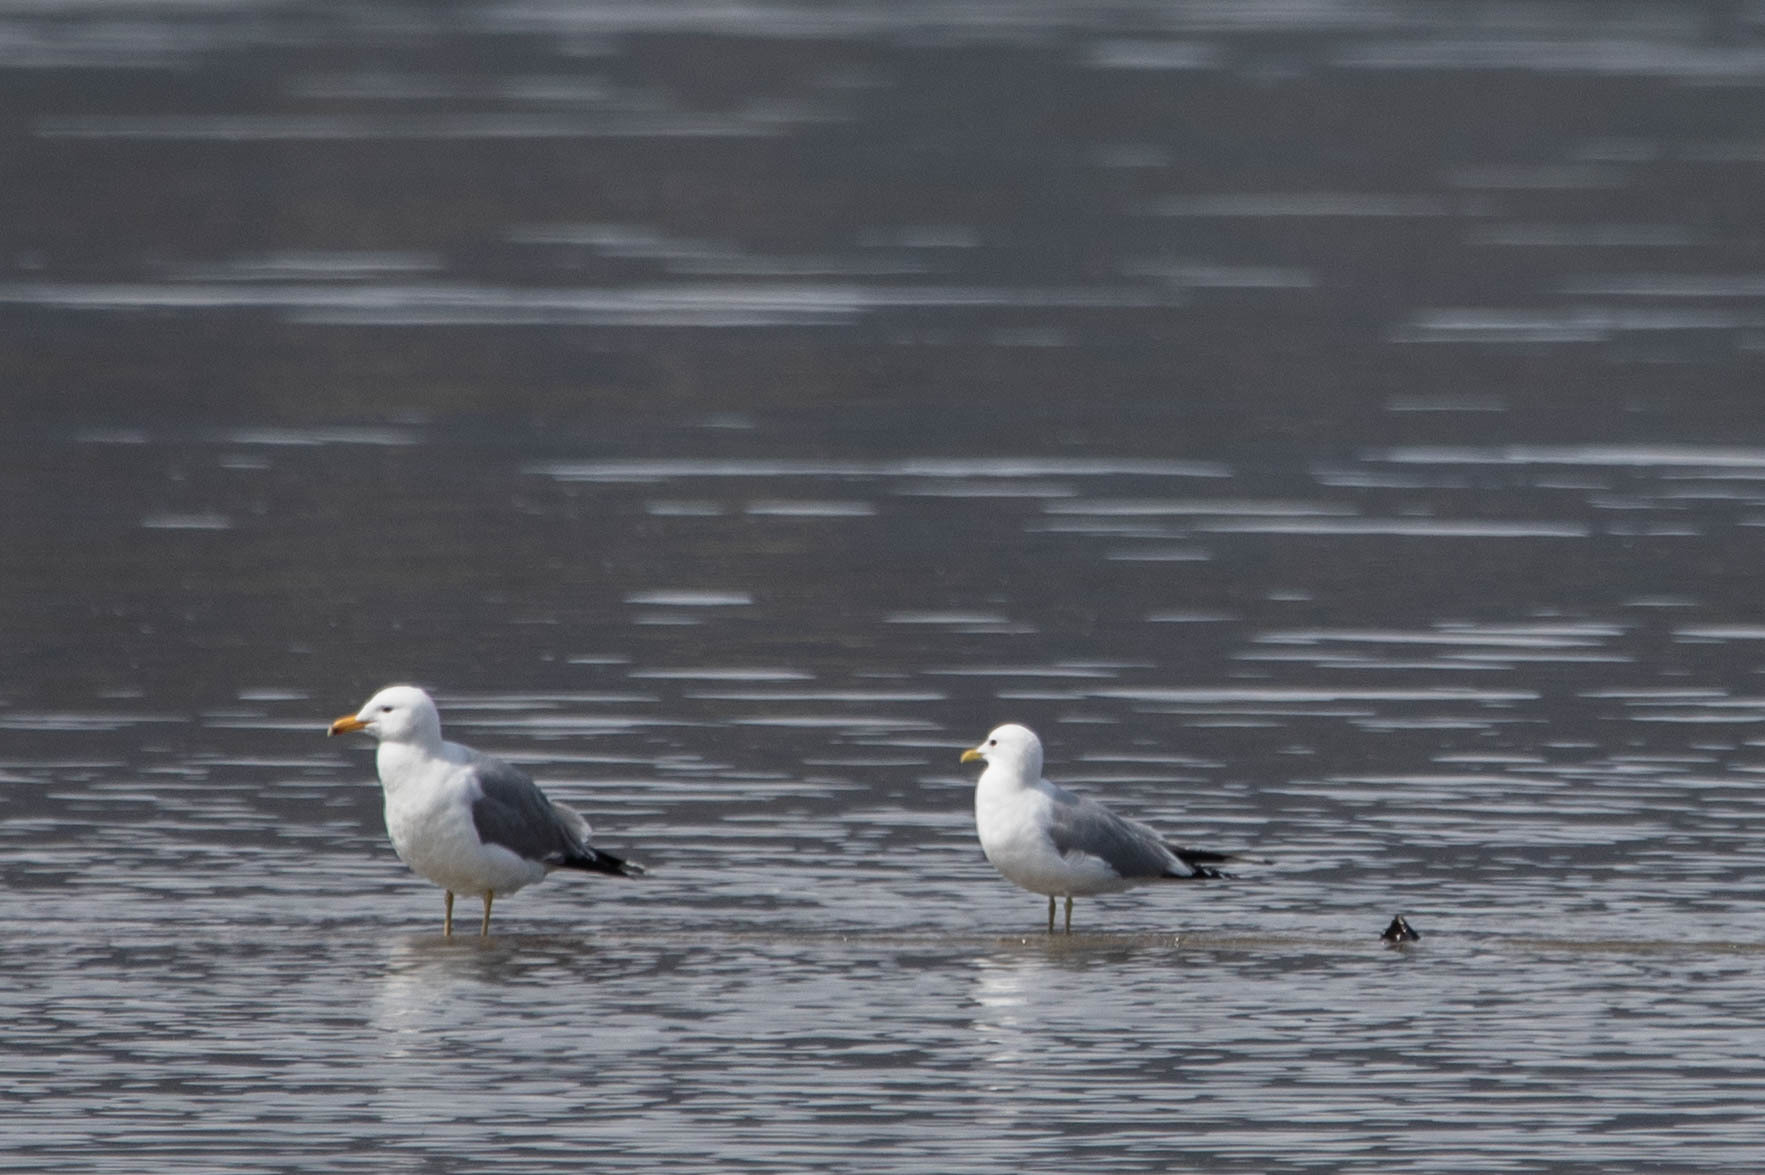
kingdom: Animalia
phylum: Chordata
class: Aves
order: Charadriiformes
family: Laridae
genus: Larus
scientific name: Larus brachyrhynchus
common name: Short-billed gull
